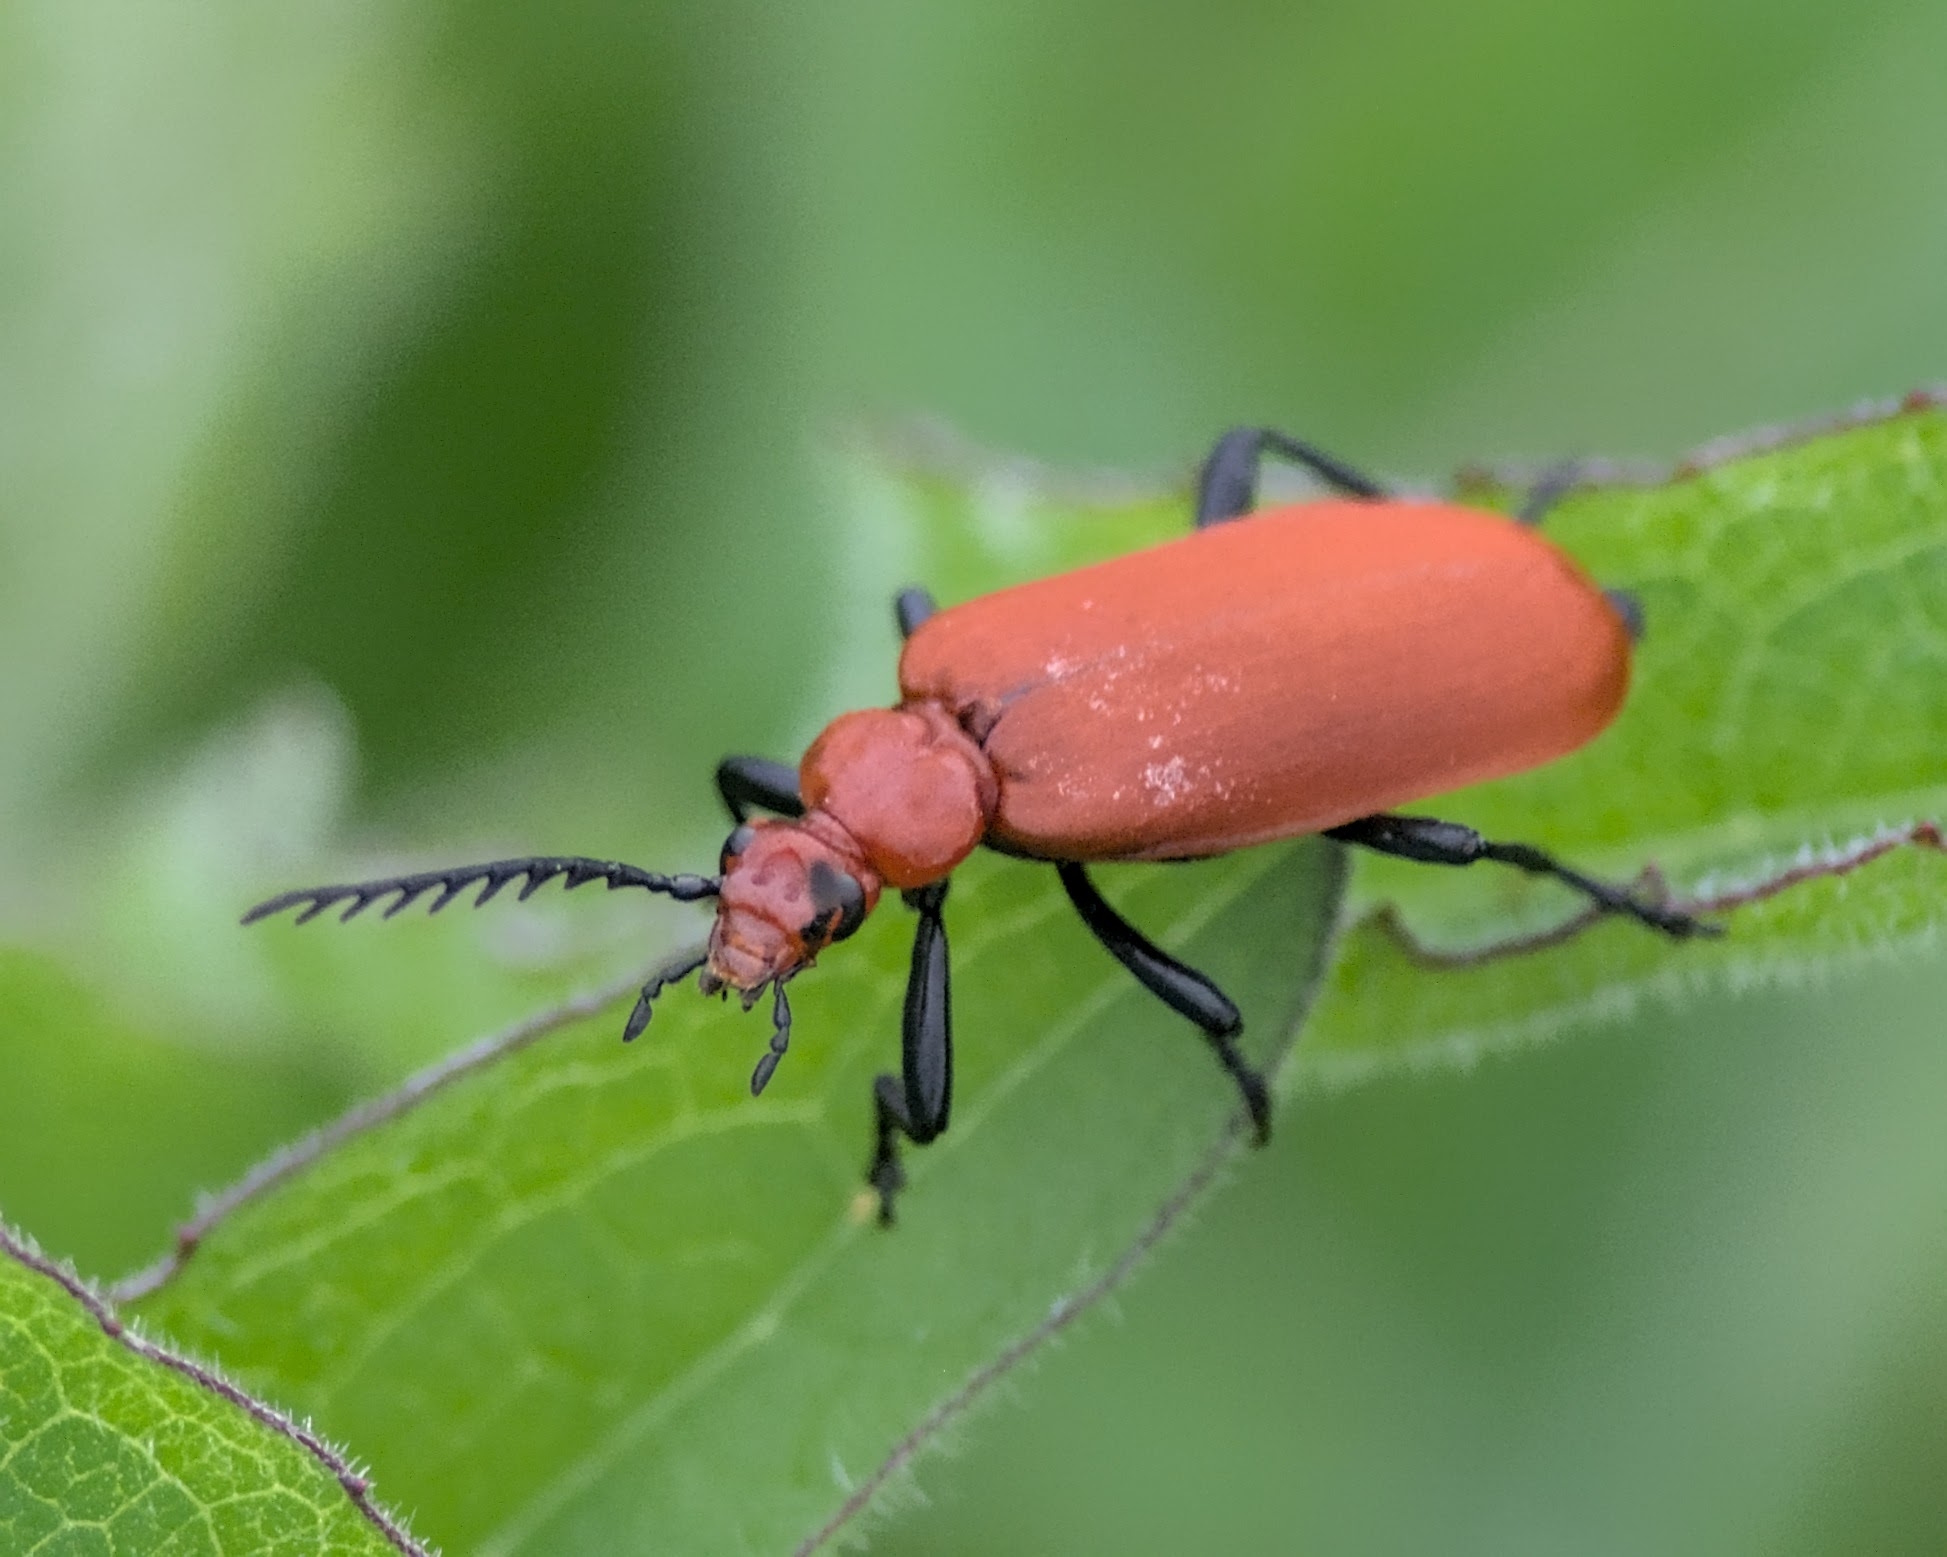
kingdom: Animalia
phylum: Arthropoda
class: Insecta
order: Coleoptera
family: Pyrochroidae
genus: Pyrochroa
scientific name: Pyrochroa serraticornis
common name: Red-headed cardinal beetle
